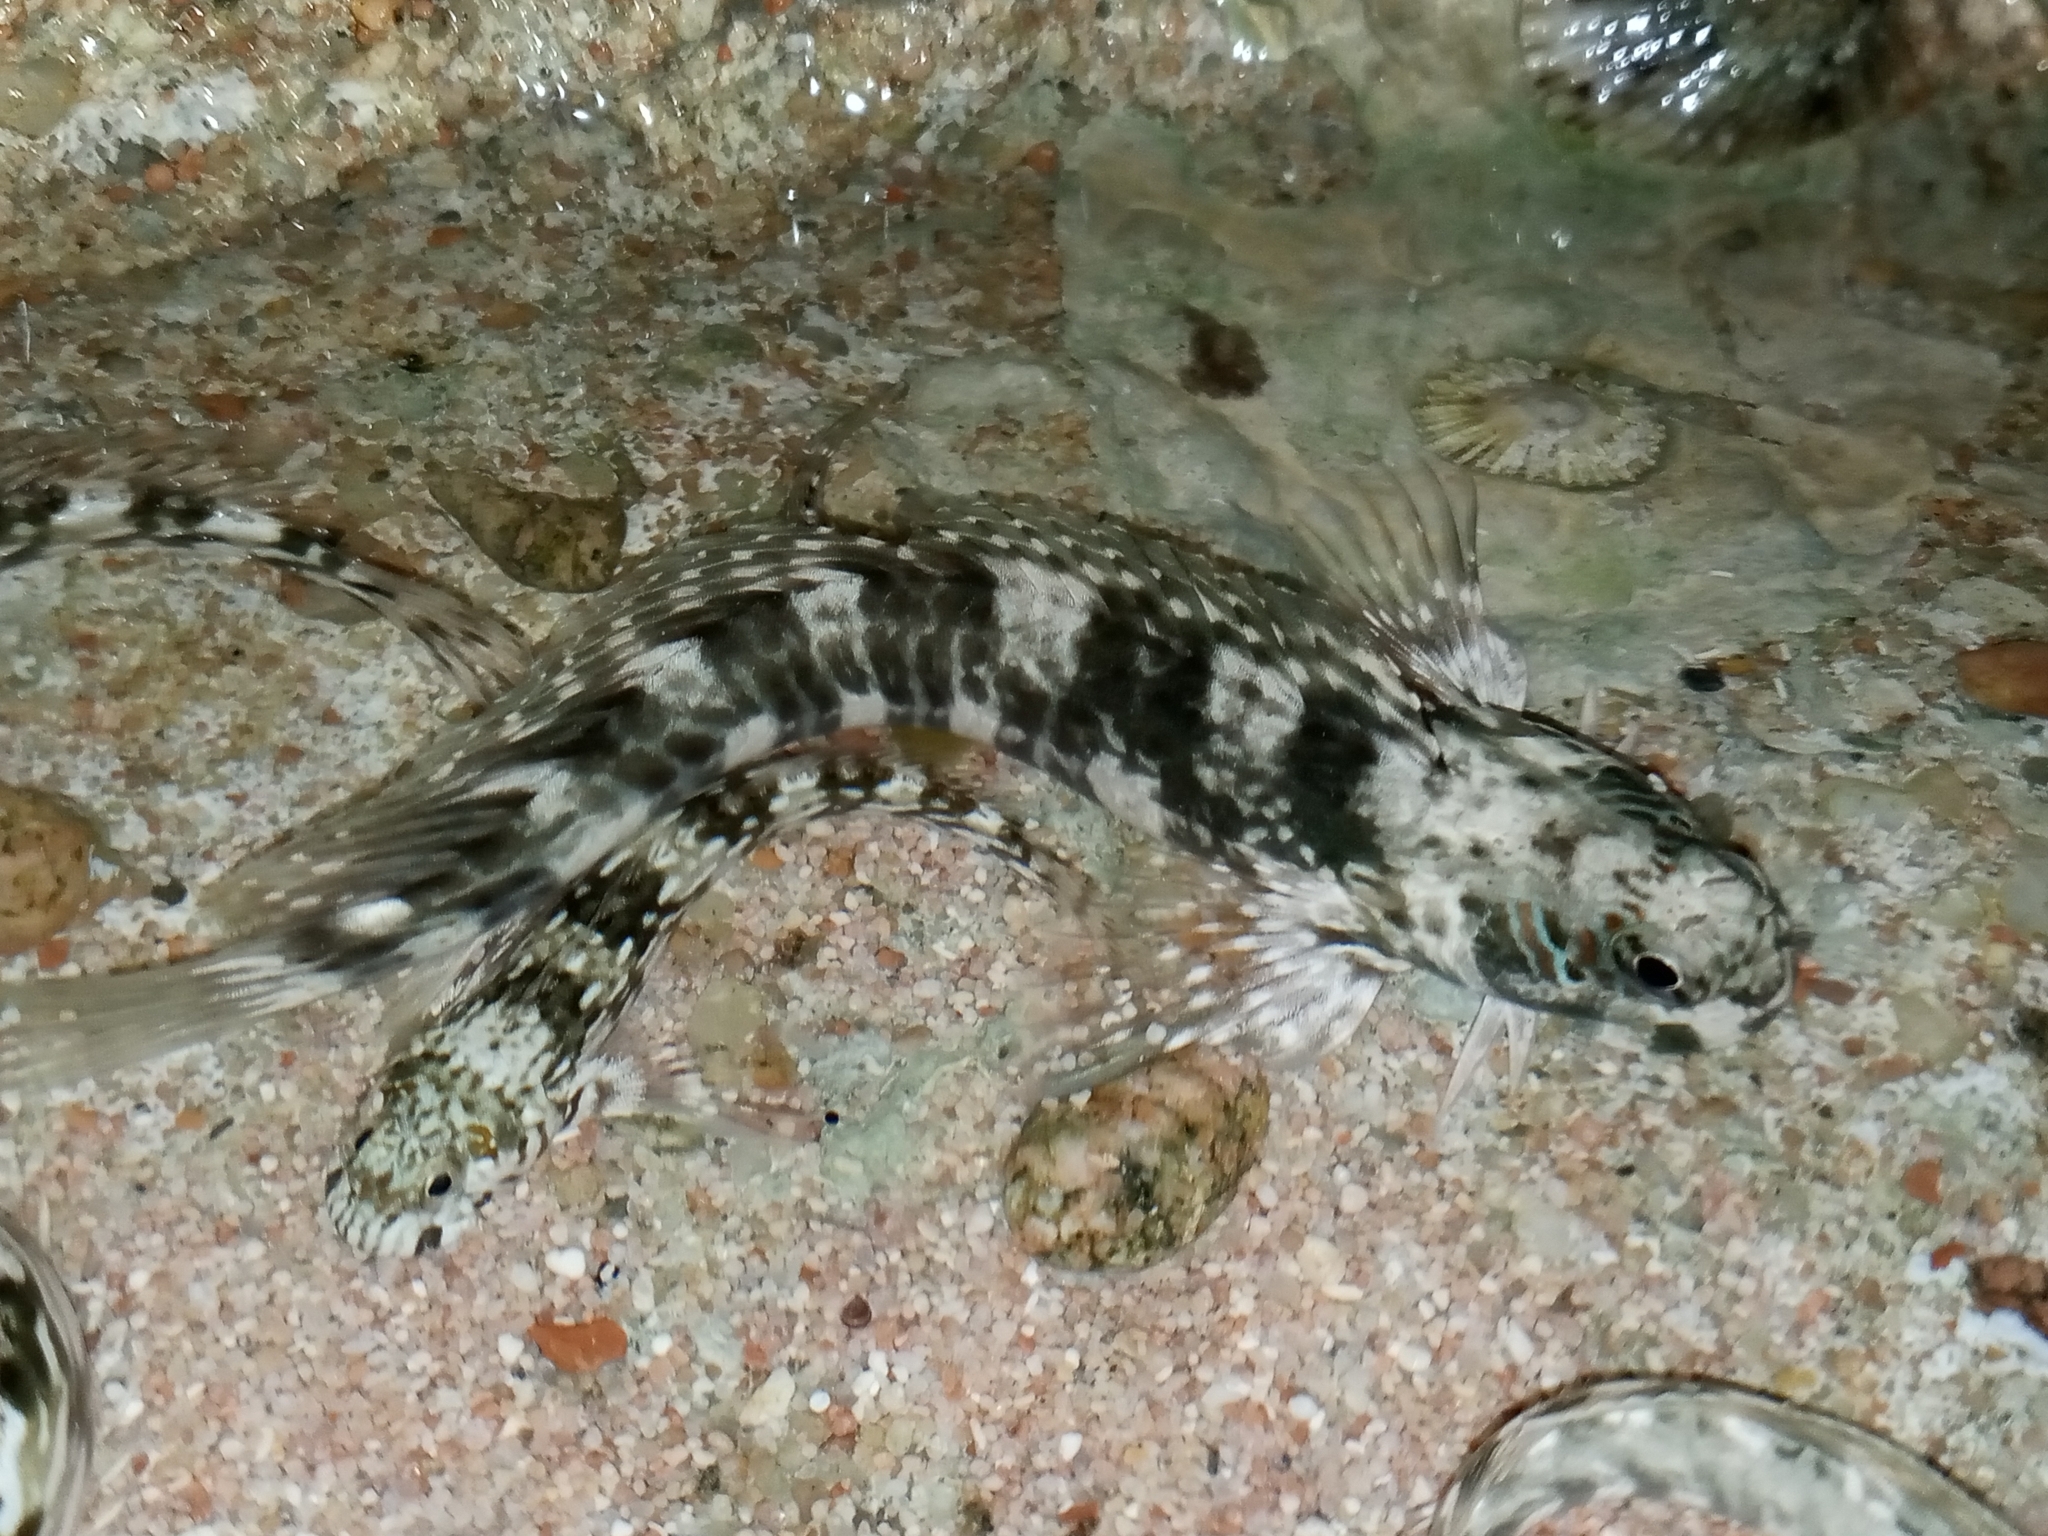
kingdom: Animalia
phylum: Chordata
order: Perciformes
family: Blenniidae
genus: Istiblennius
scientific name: Istiblennius unicolor
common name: Pallid rockskipper
